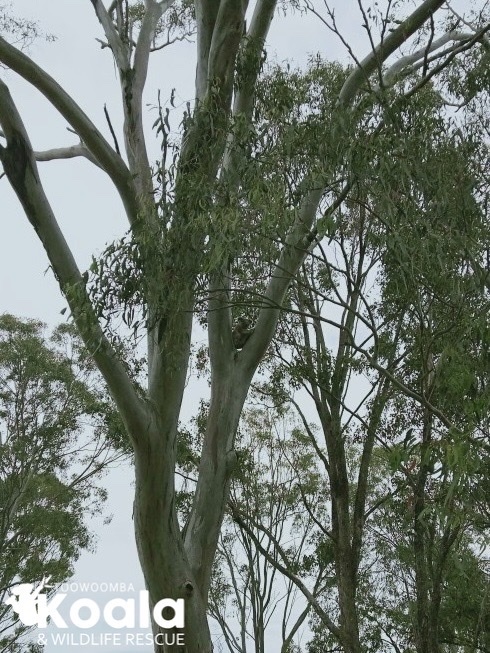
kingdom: Animalia
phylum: Chordata
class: Mammalia
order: Diprotodontia
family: Phascolarctidae
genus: Phascolarctos
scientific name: Phascolarctos cinereus
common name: Koala
